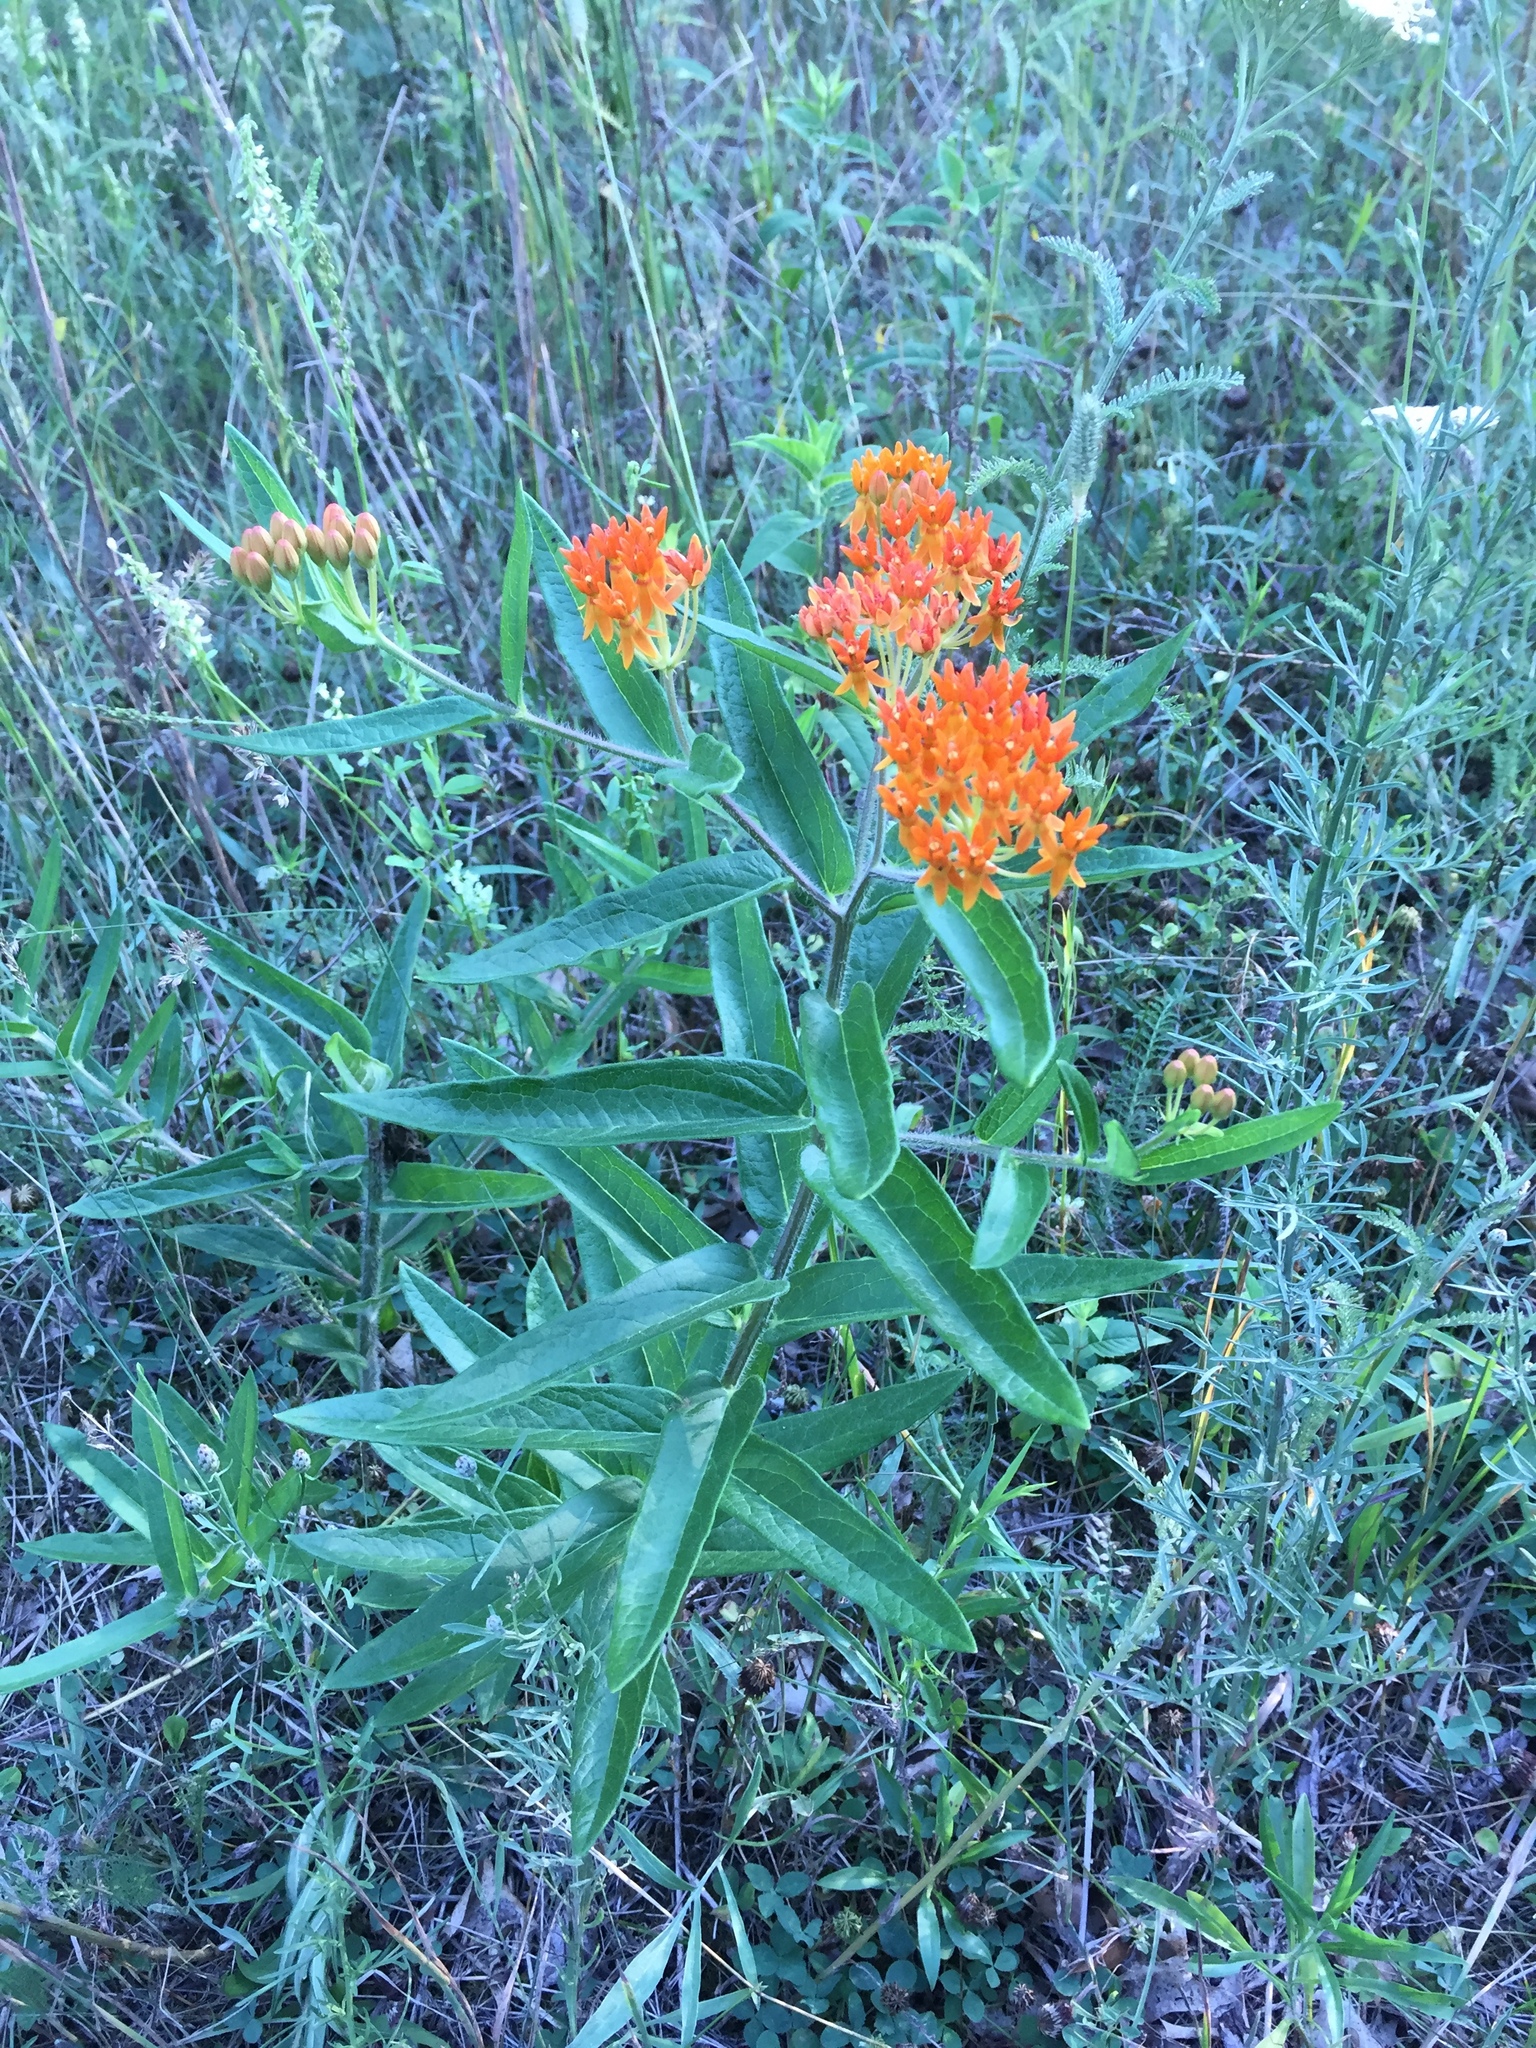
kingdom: Plantae
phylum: Tracheophyta
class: Magnoliopsida
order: Gentianales
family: Apocynaceae
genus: Asclepias
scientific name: Asclepias tuberosa
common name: Butterfly milkweed
